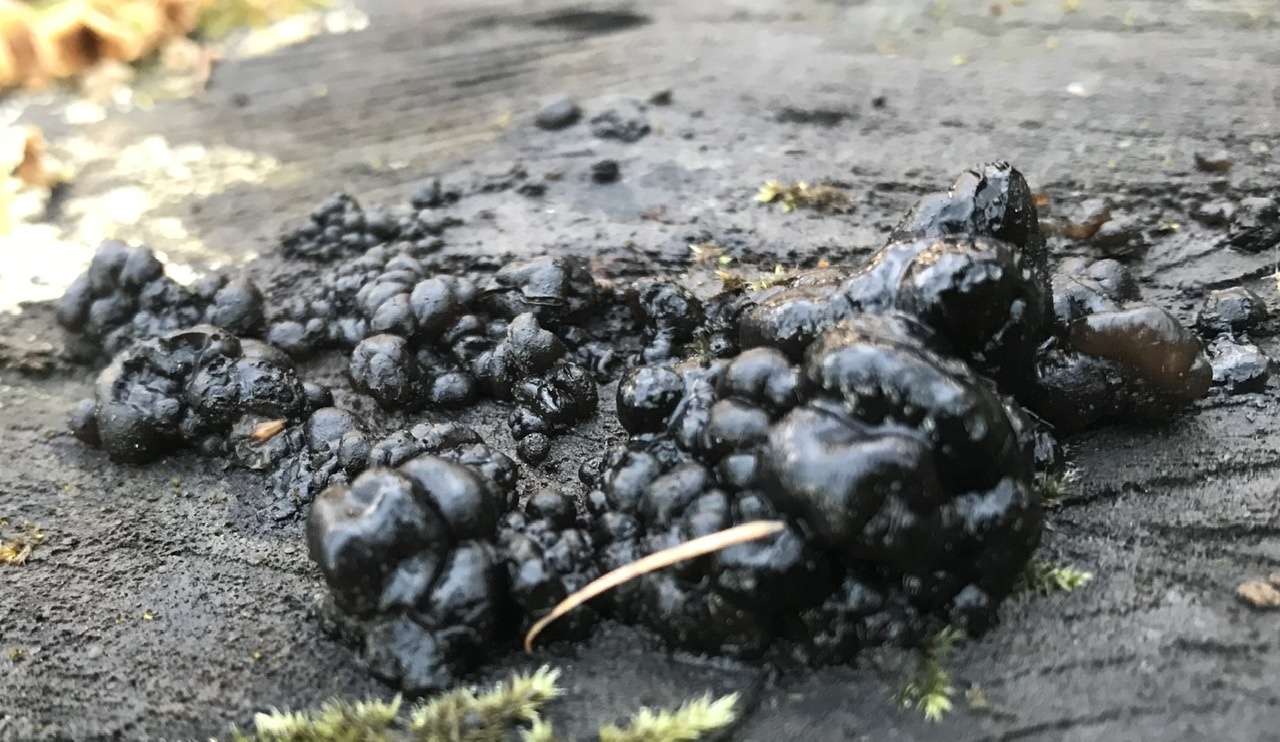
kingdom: Fungi
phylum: Basidiomycota
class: Agaricomycetes
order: Auriculariales
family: Auriculariaceae
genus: Exidia
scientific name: Exidia glandulosa
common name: Witches' butter
